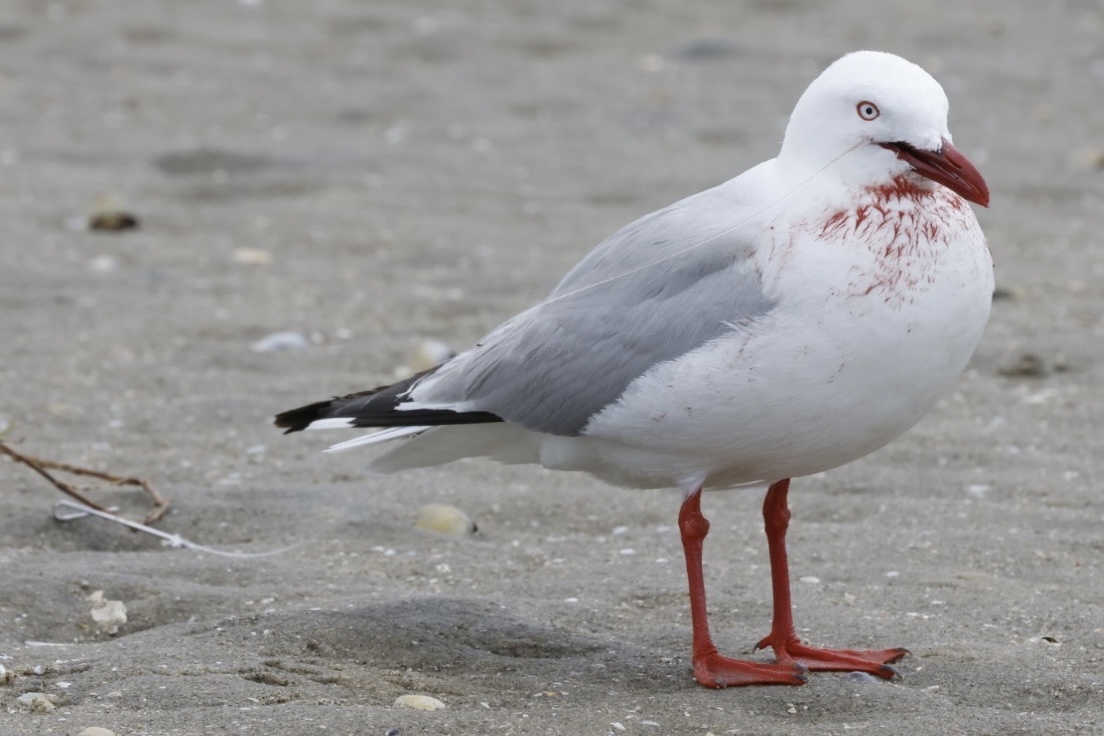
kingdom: Animalia
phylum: Chordata
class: Aves
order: Charadriiformes
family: Laridae
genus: Chroicocephalus
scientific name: Chroicocephalus novaehollandiae
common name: Silver gull
